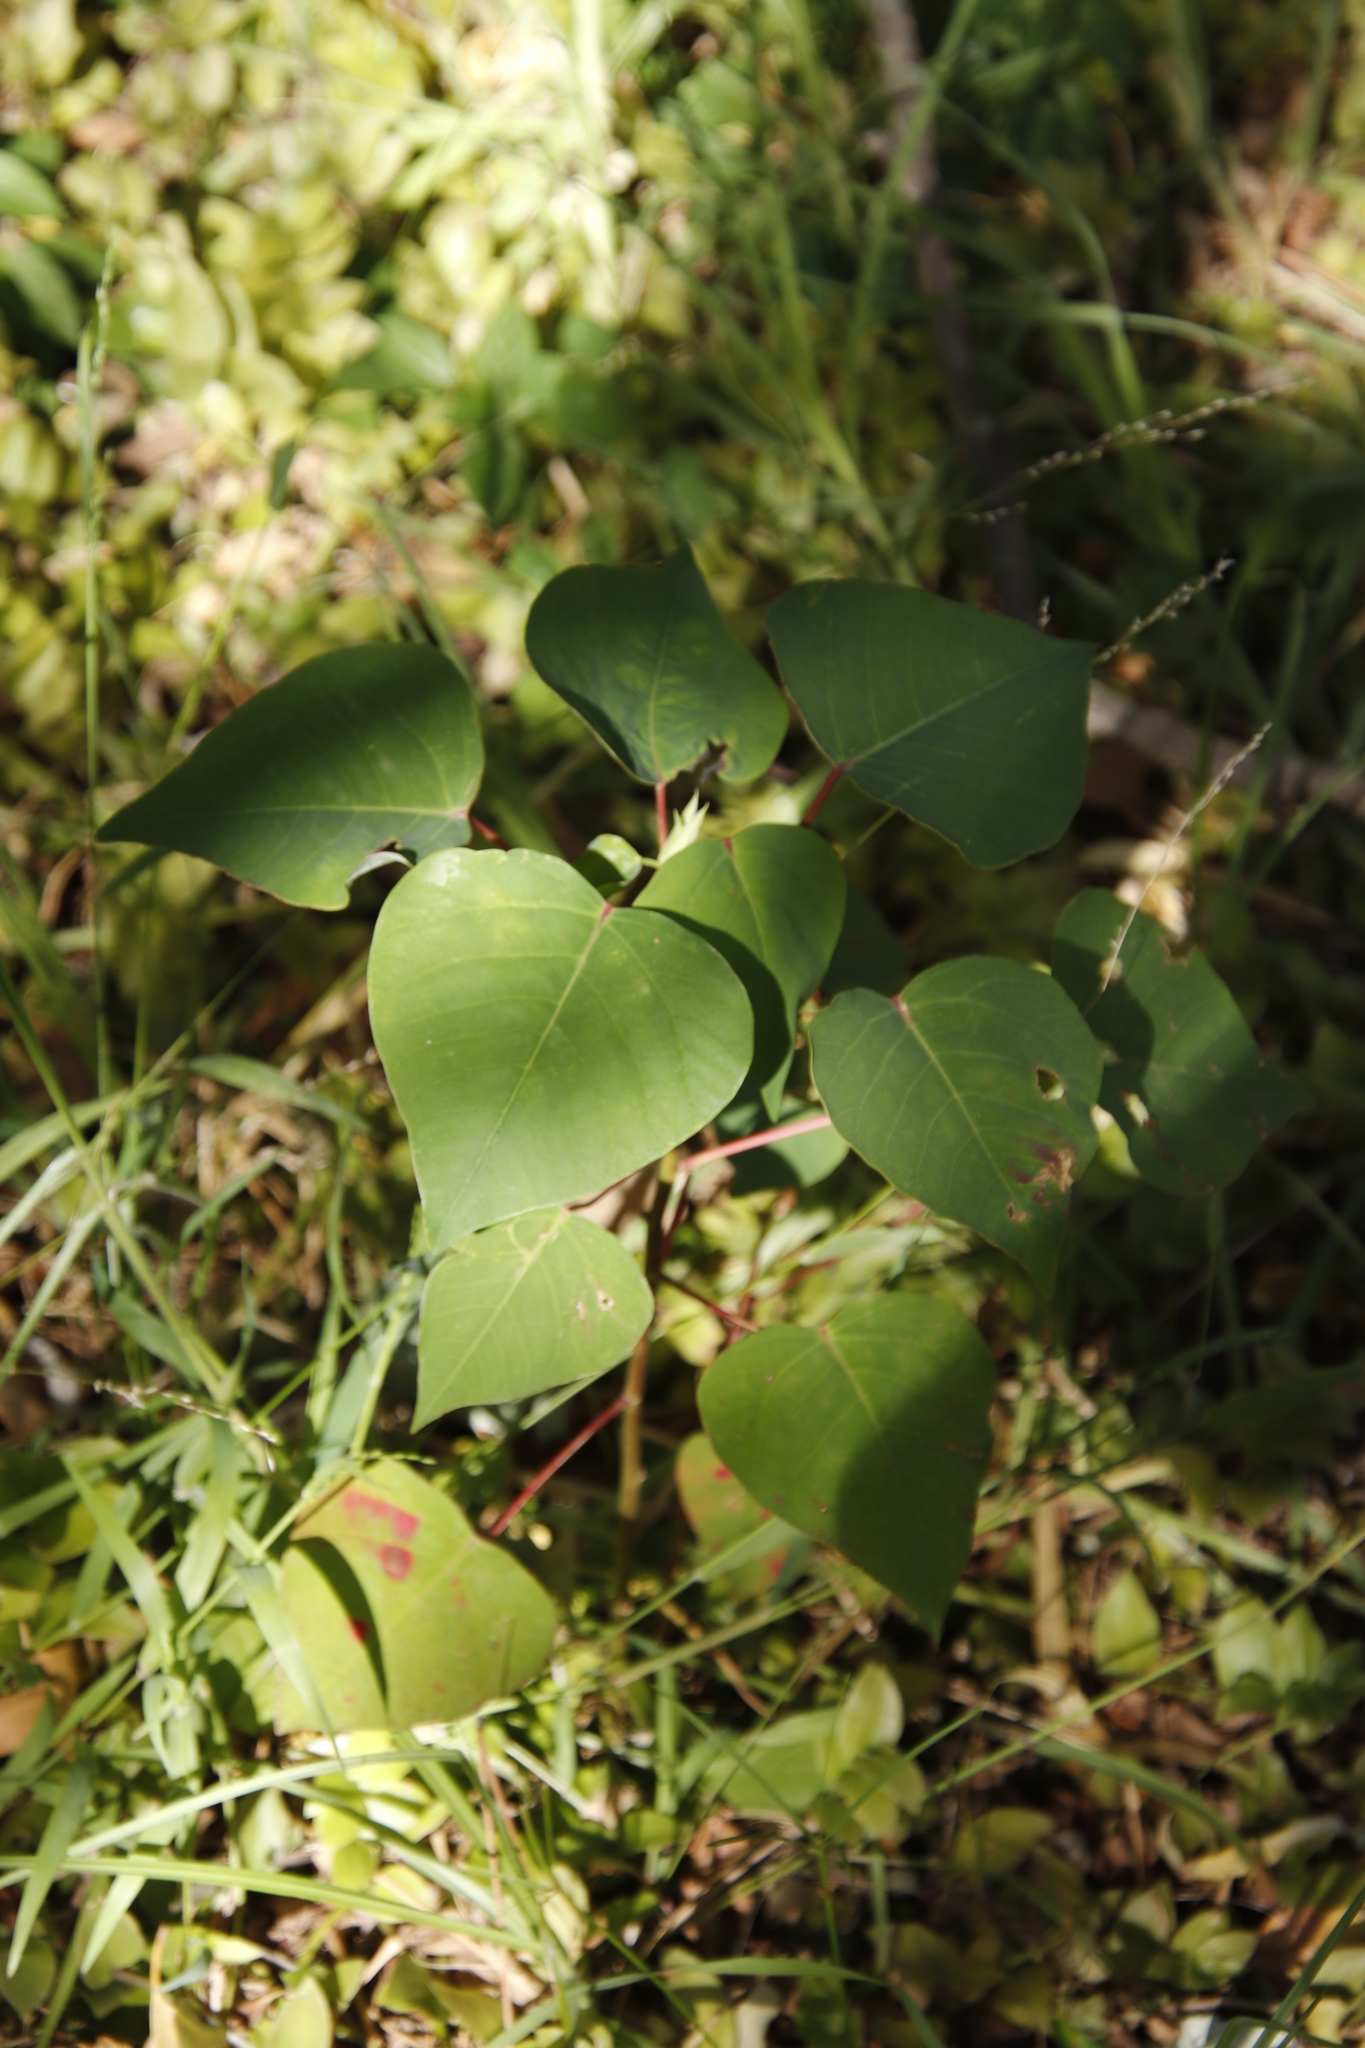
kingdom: Plantae
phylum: Tracheophyta
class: Magnoliopsida
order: Malpighiales
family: Euphorbiaceae
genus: Homalanthus
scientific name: Homalanthus populifolius
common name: Queensland poplar
